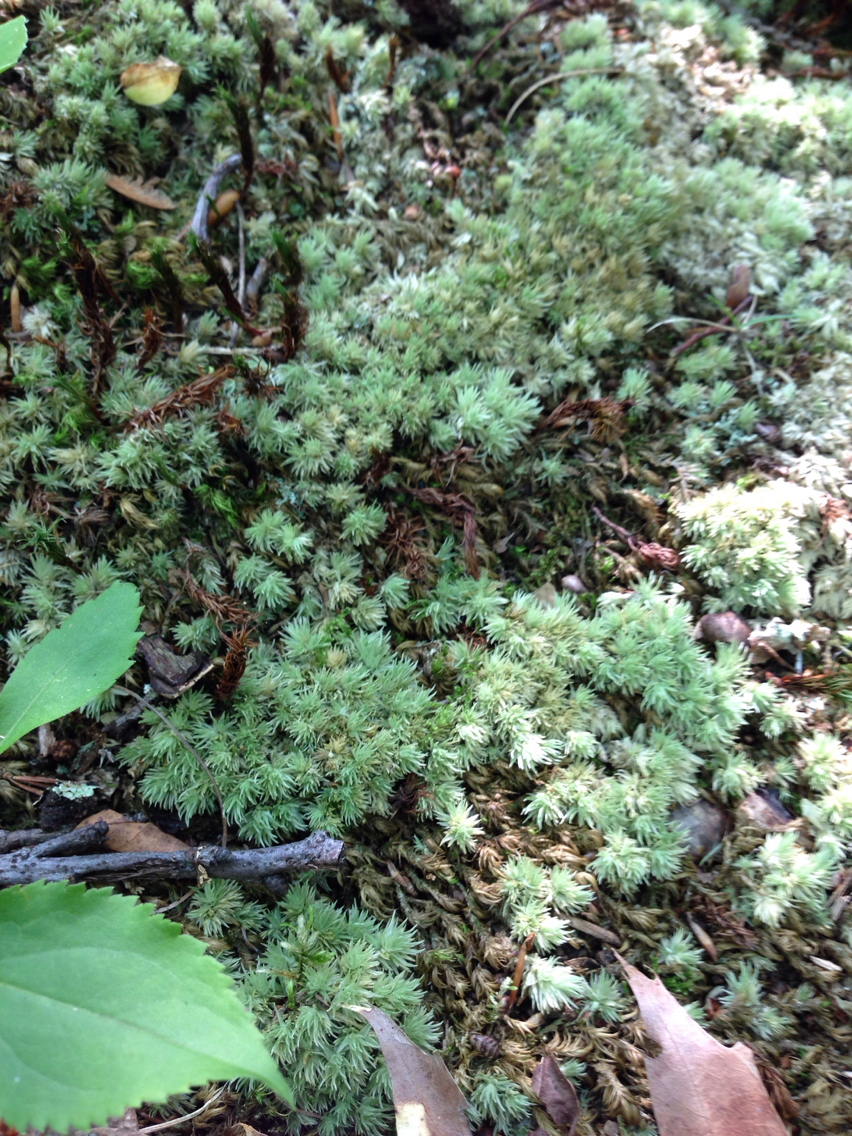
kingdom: Plantae
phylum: Bryophyta
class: Bryopsida
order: Dicranales
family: Leucobryaceae
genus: Leucobryum
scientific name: Leucobryum
